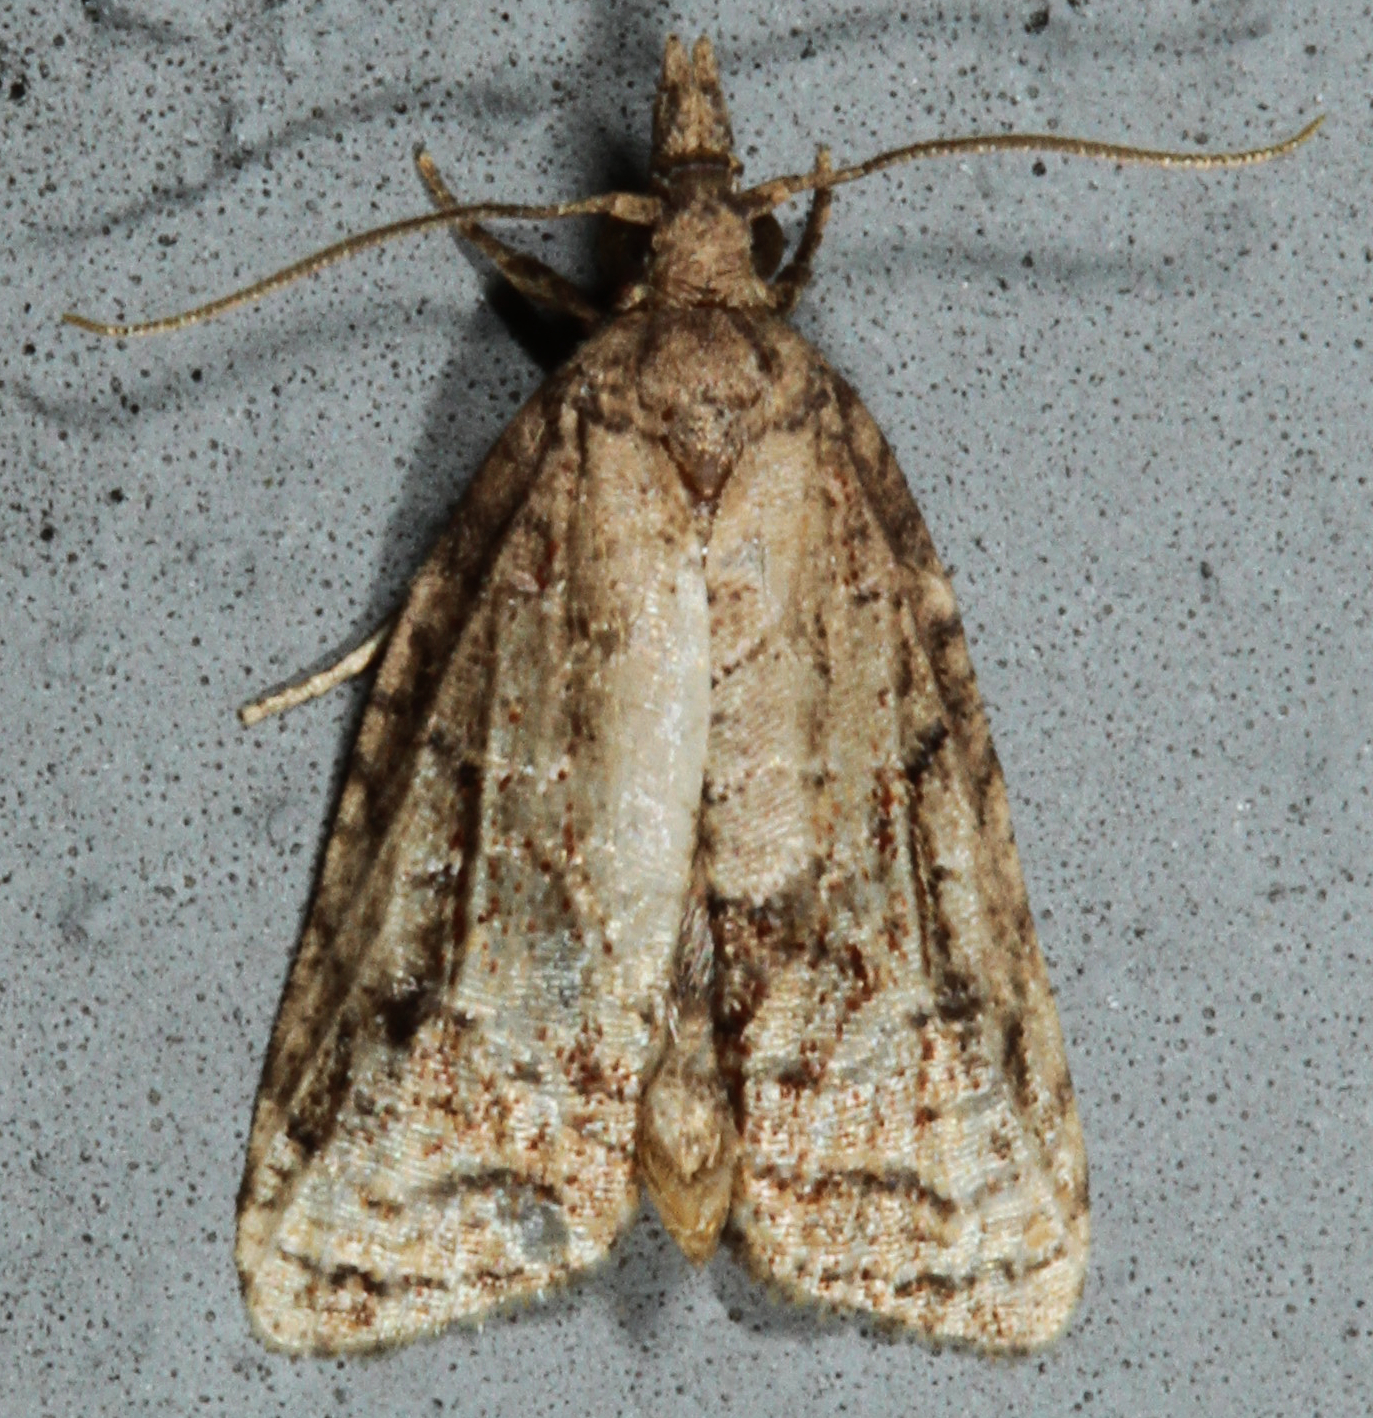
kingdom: Animalia
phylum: Arthropoda
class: Insecta
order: Lepidoptera
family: Tortricidae
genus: Platynota
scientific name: Platynota idaeusalis
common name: Tufted apple bud moth
